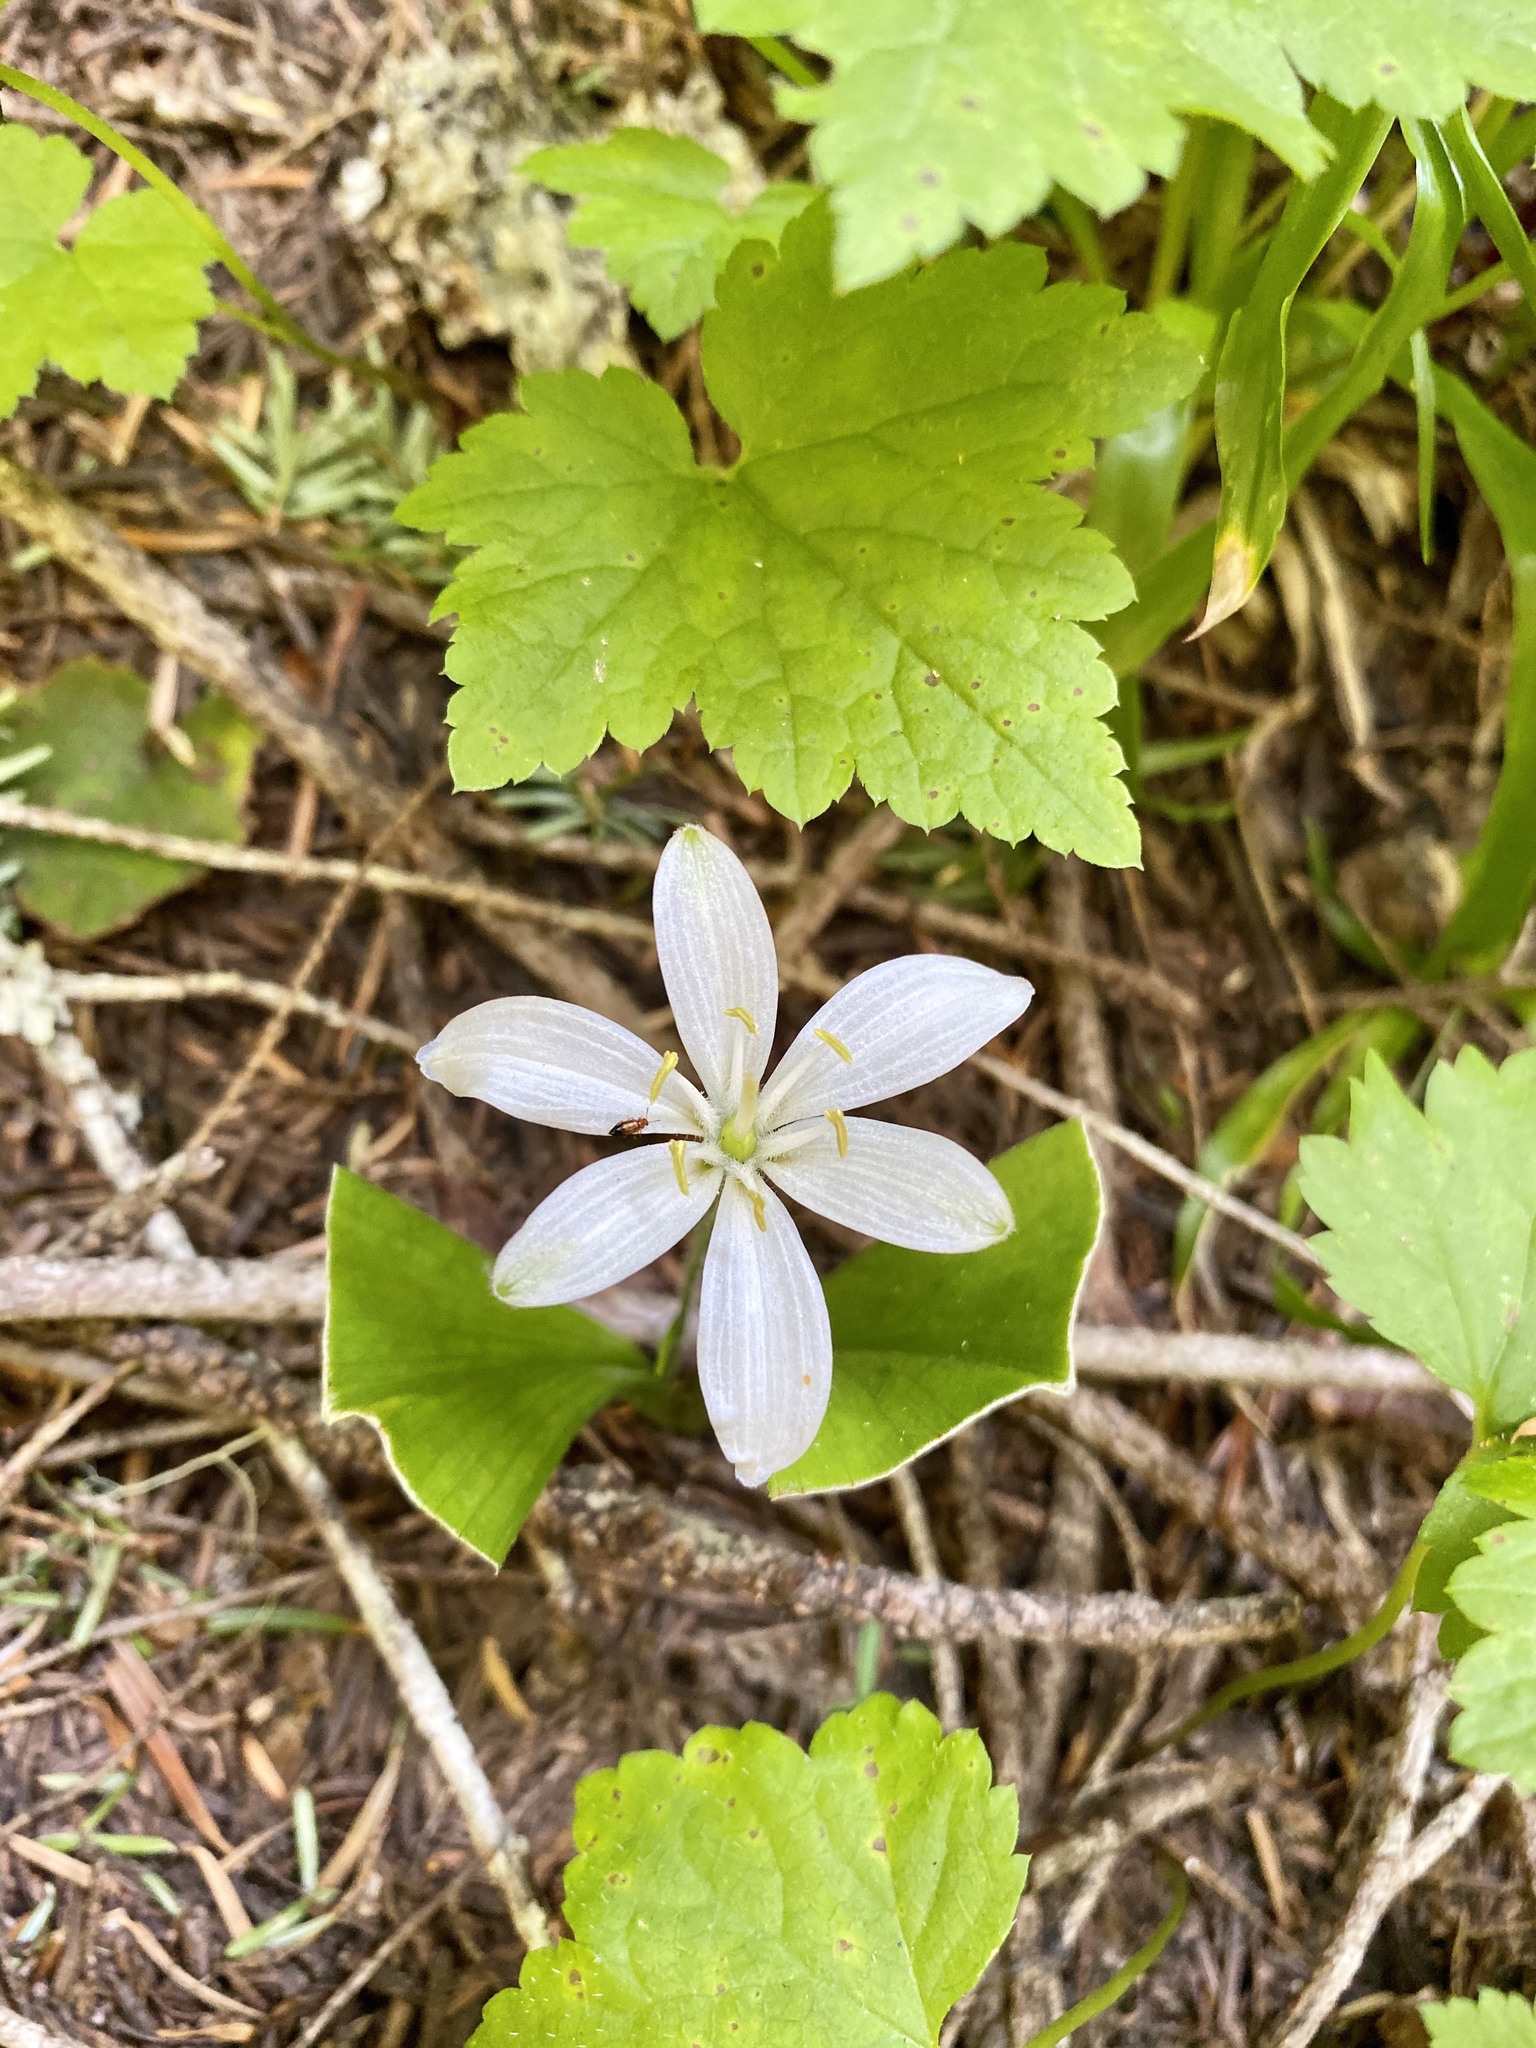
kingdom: Plantae
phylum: Tracheophyta
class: Liliopsida
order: Liliales
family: Liliaceae
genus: Clintonia
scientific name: Clintonia uniflora
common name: Queen's cup
